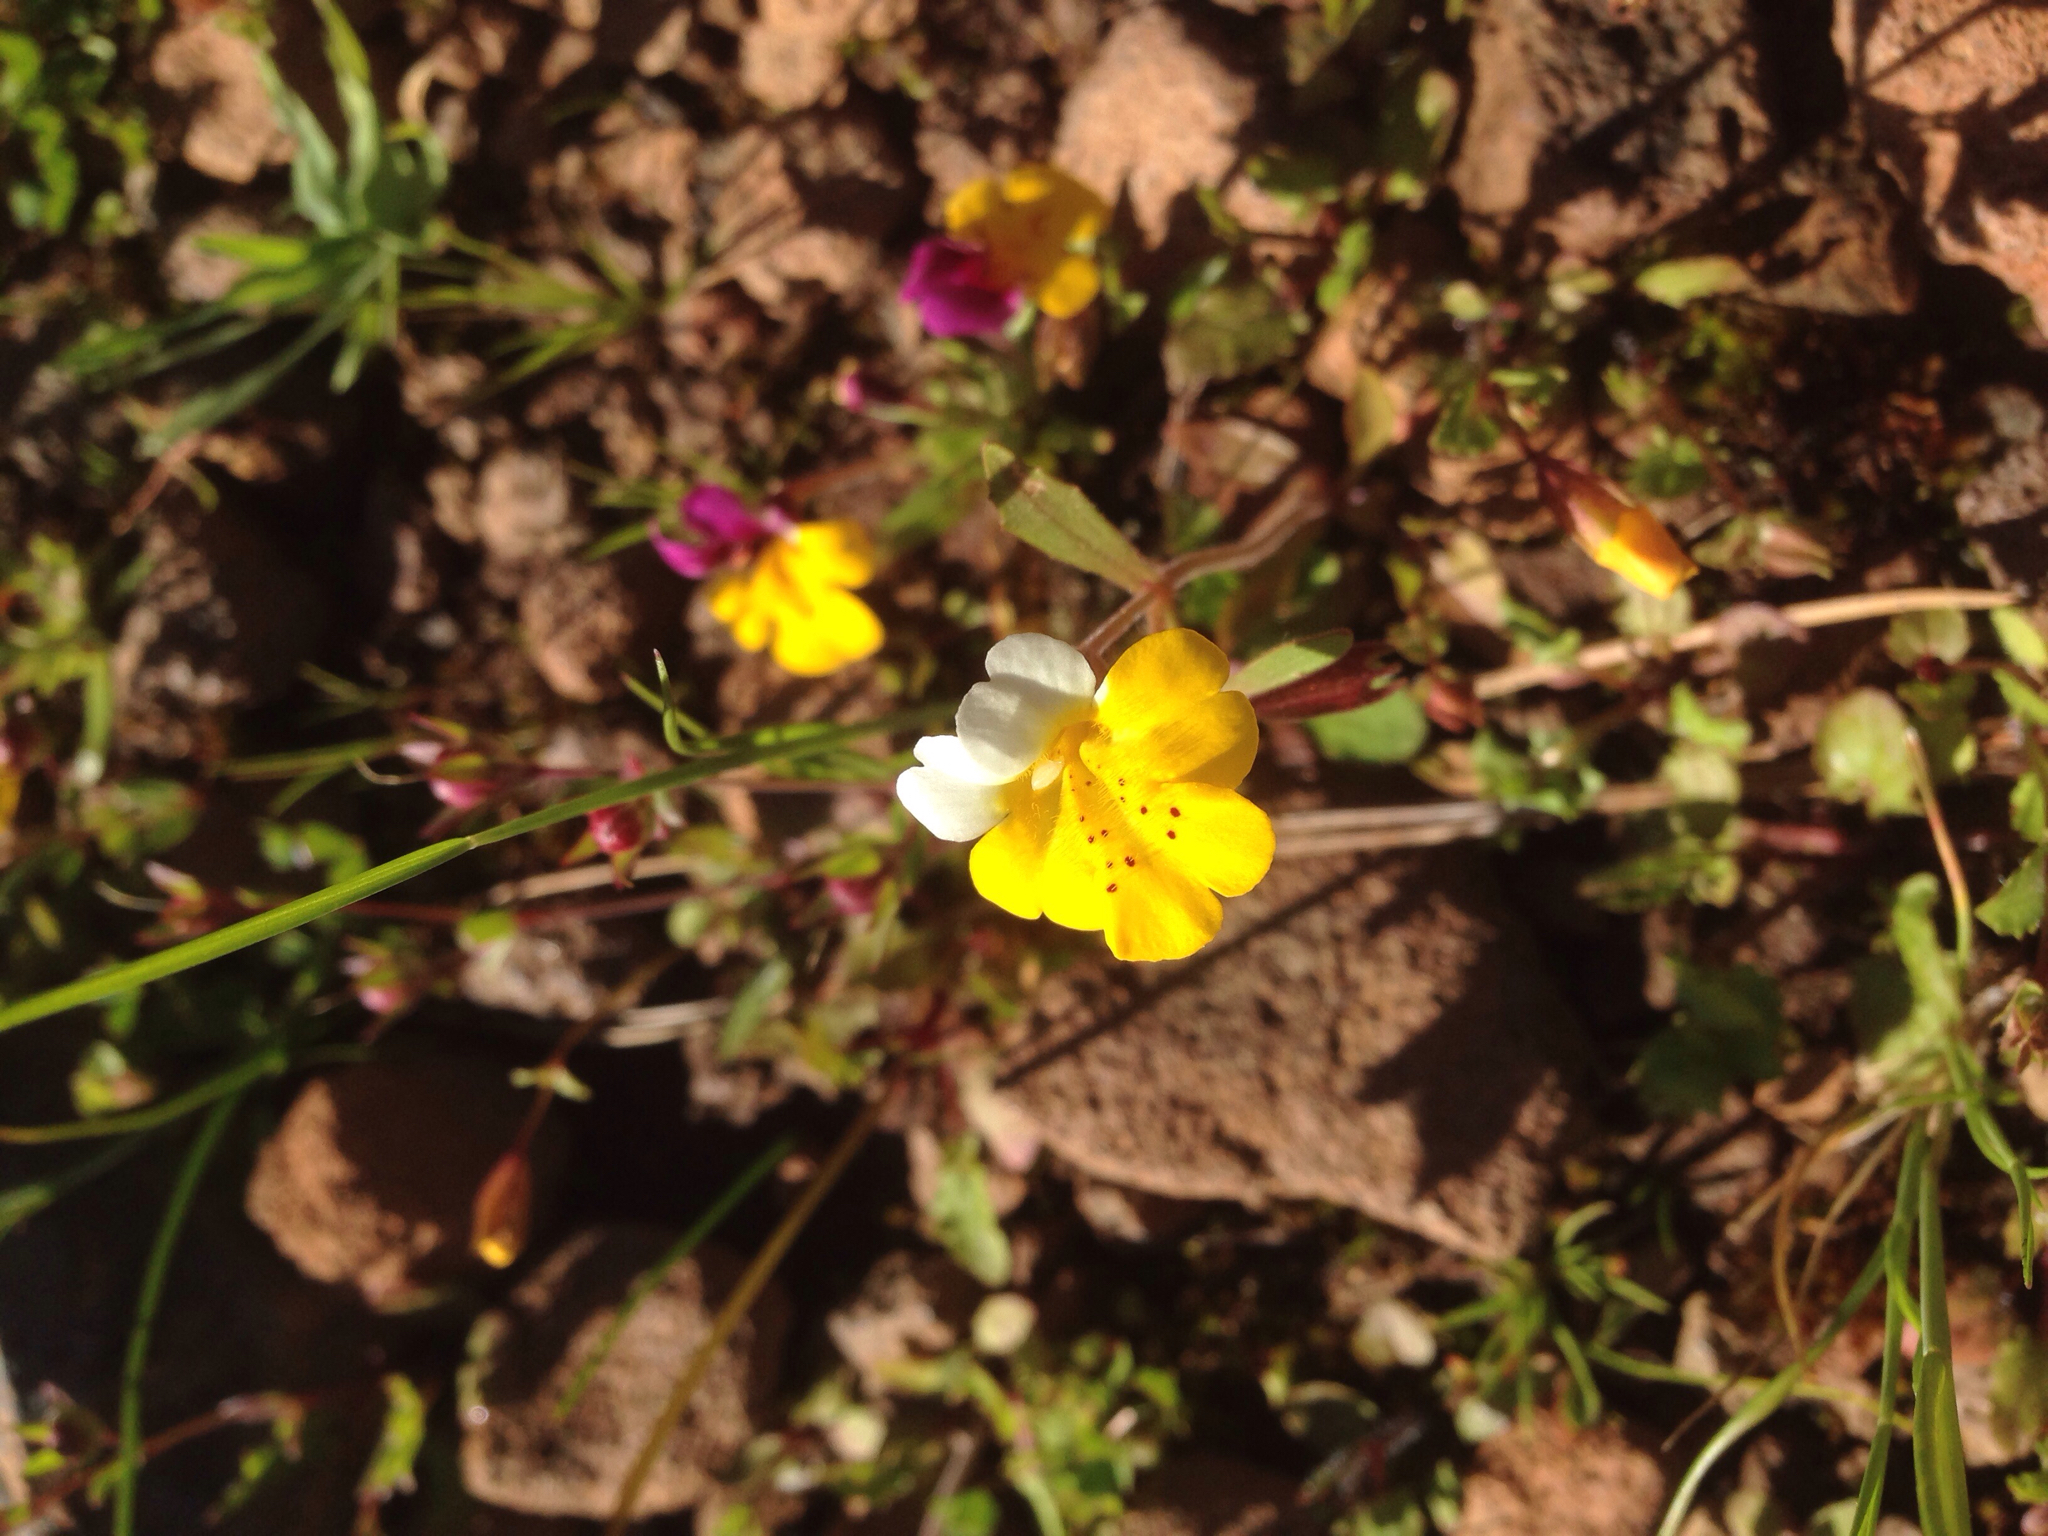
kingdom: Plantae
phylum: Tracheophyta
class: Magnoliopsida
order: Lamiales
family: Phrymaceae
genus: Erythranthe
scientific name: Erythranthe bicolor
